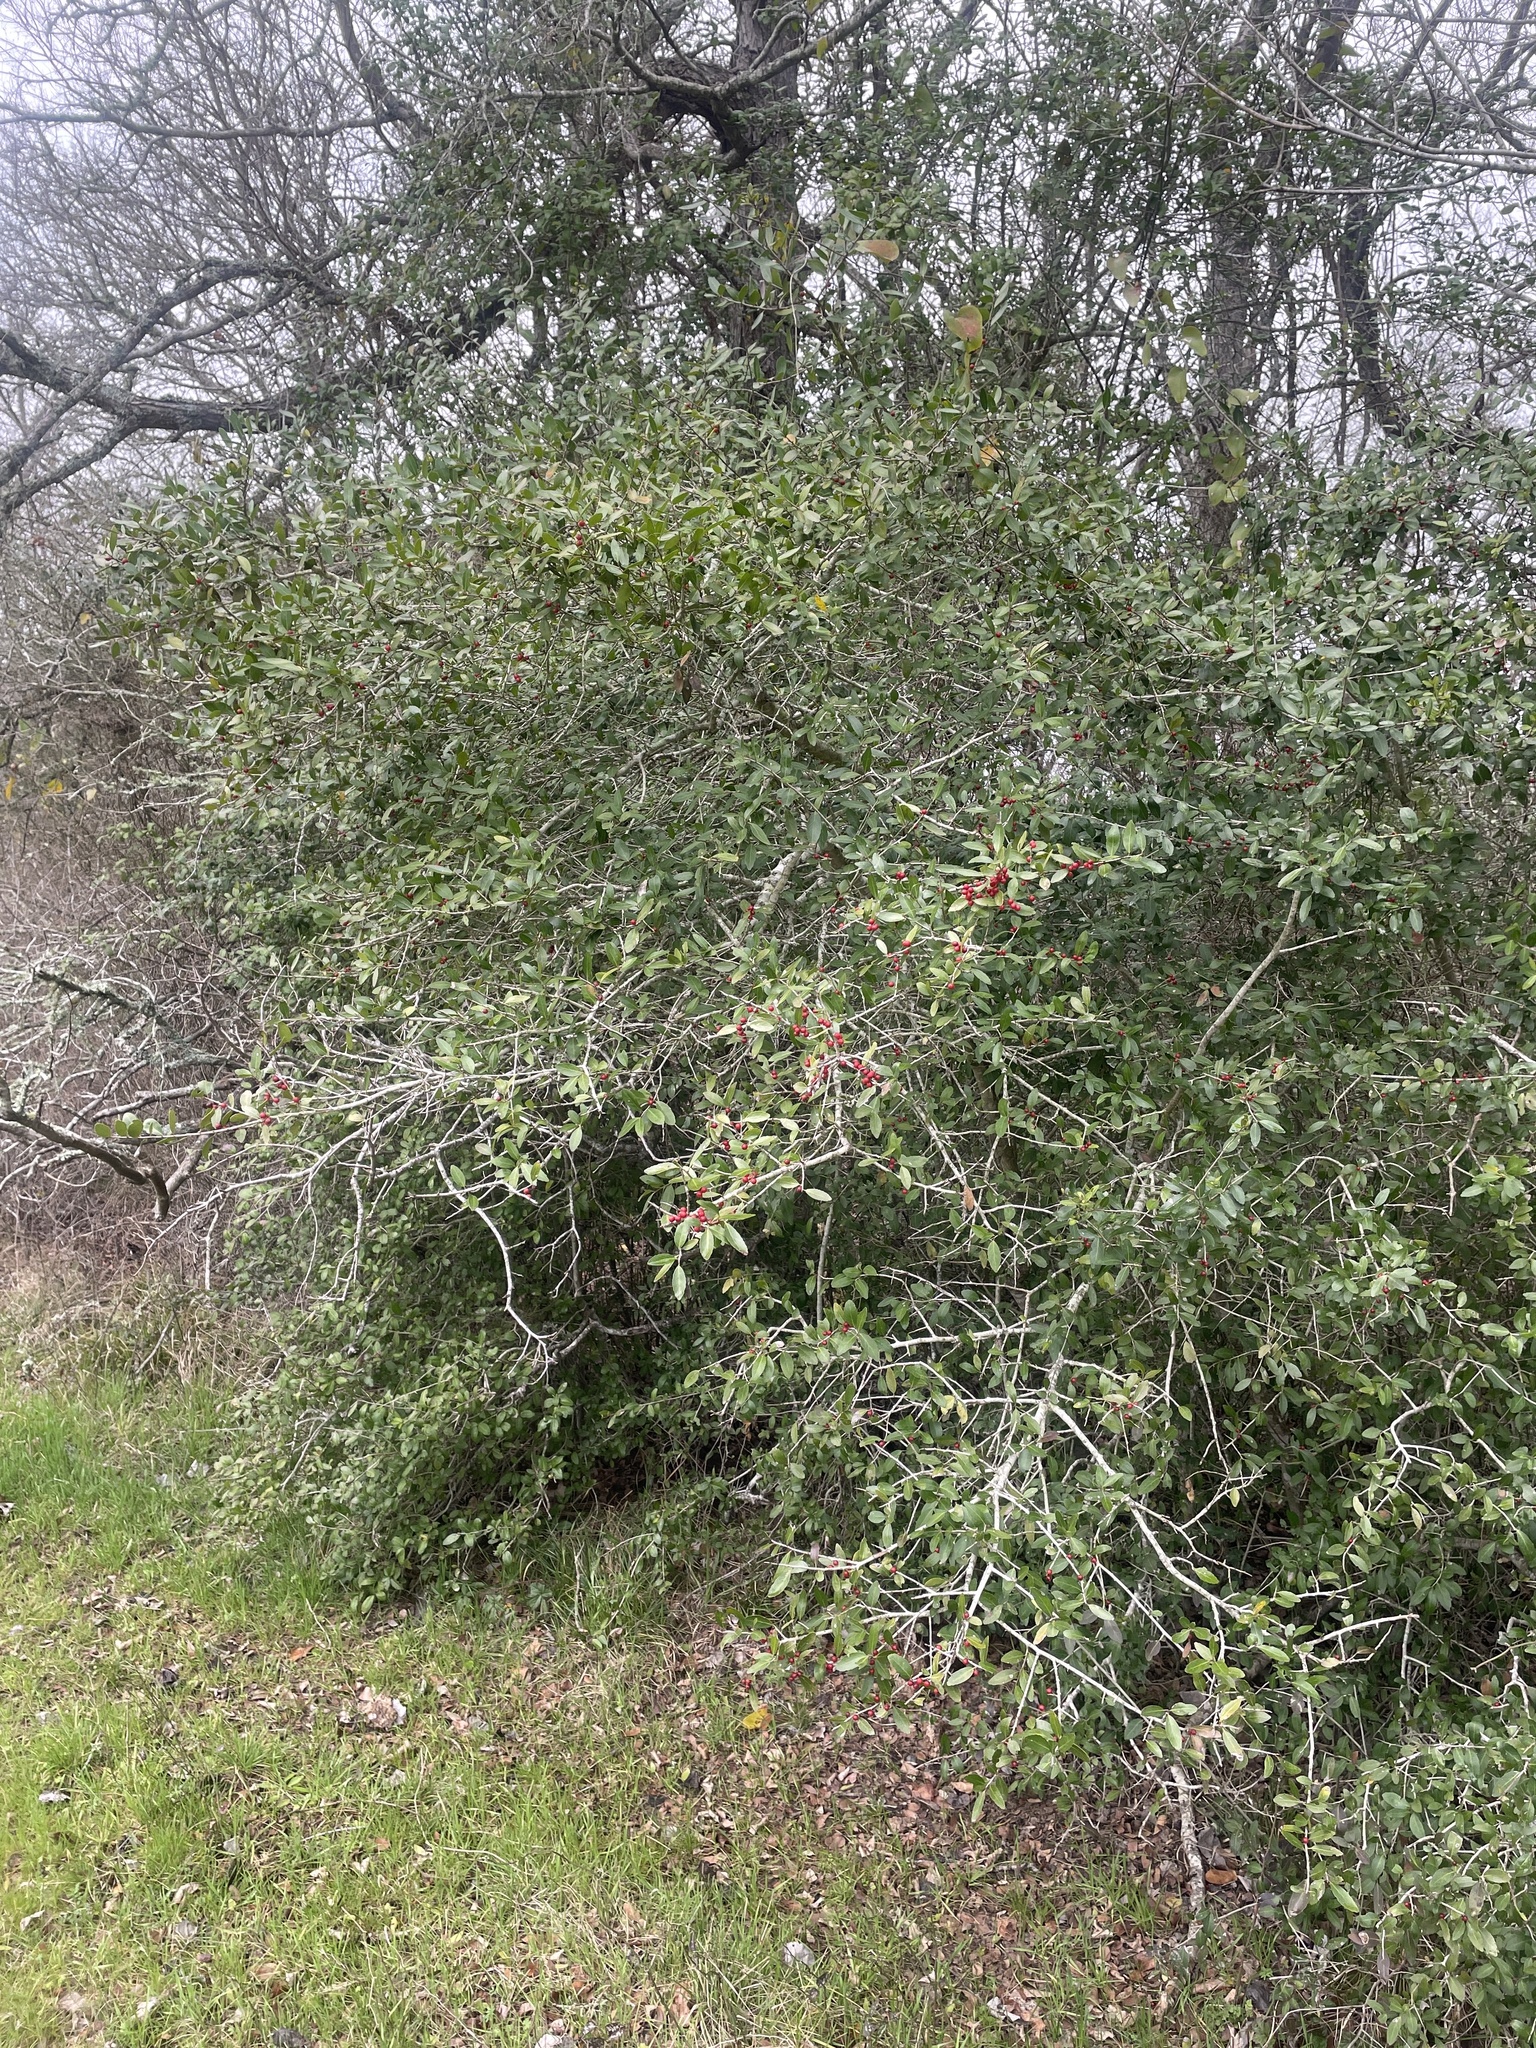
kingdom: Plantae
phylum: Tracheophyta
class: Magnoliopsida
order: Aquifoliales
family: Aquifoliaceae
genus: Ilex
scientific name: Ilex vomitoria
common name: Yaupon holly
